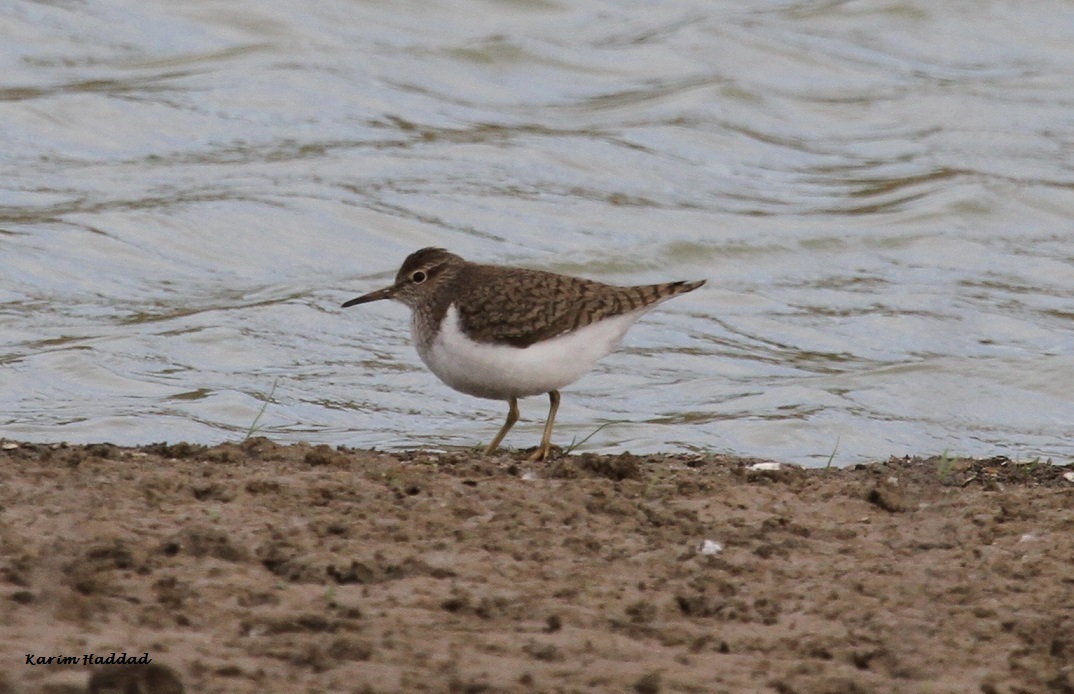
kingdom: Animalia
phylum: Chordata
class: Aves
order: Charadriiformes
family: Scolopacidae
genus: Actitis
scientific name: Actitis hypoleucos
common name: Common sandpiper
